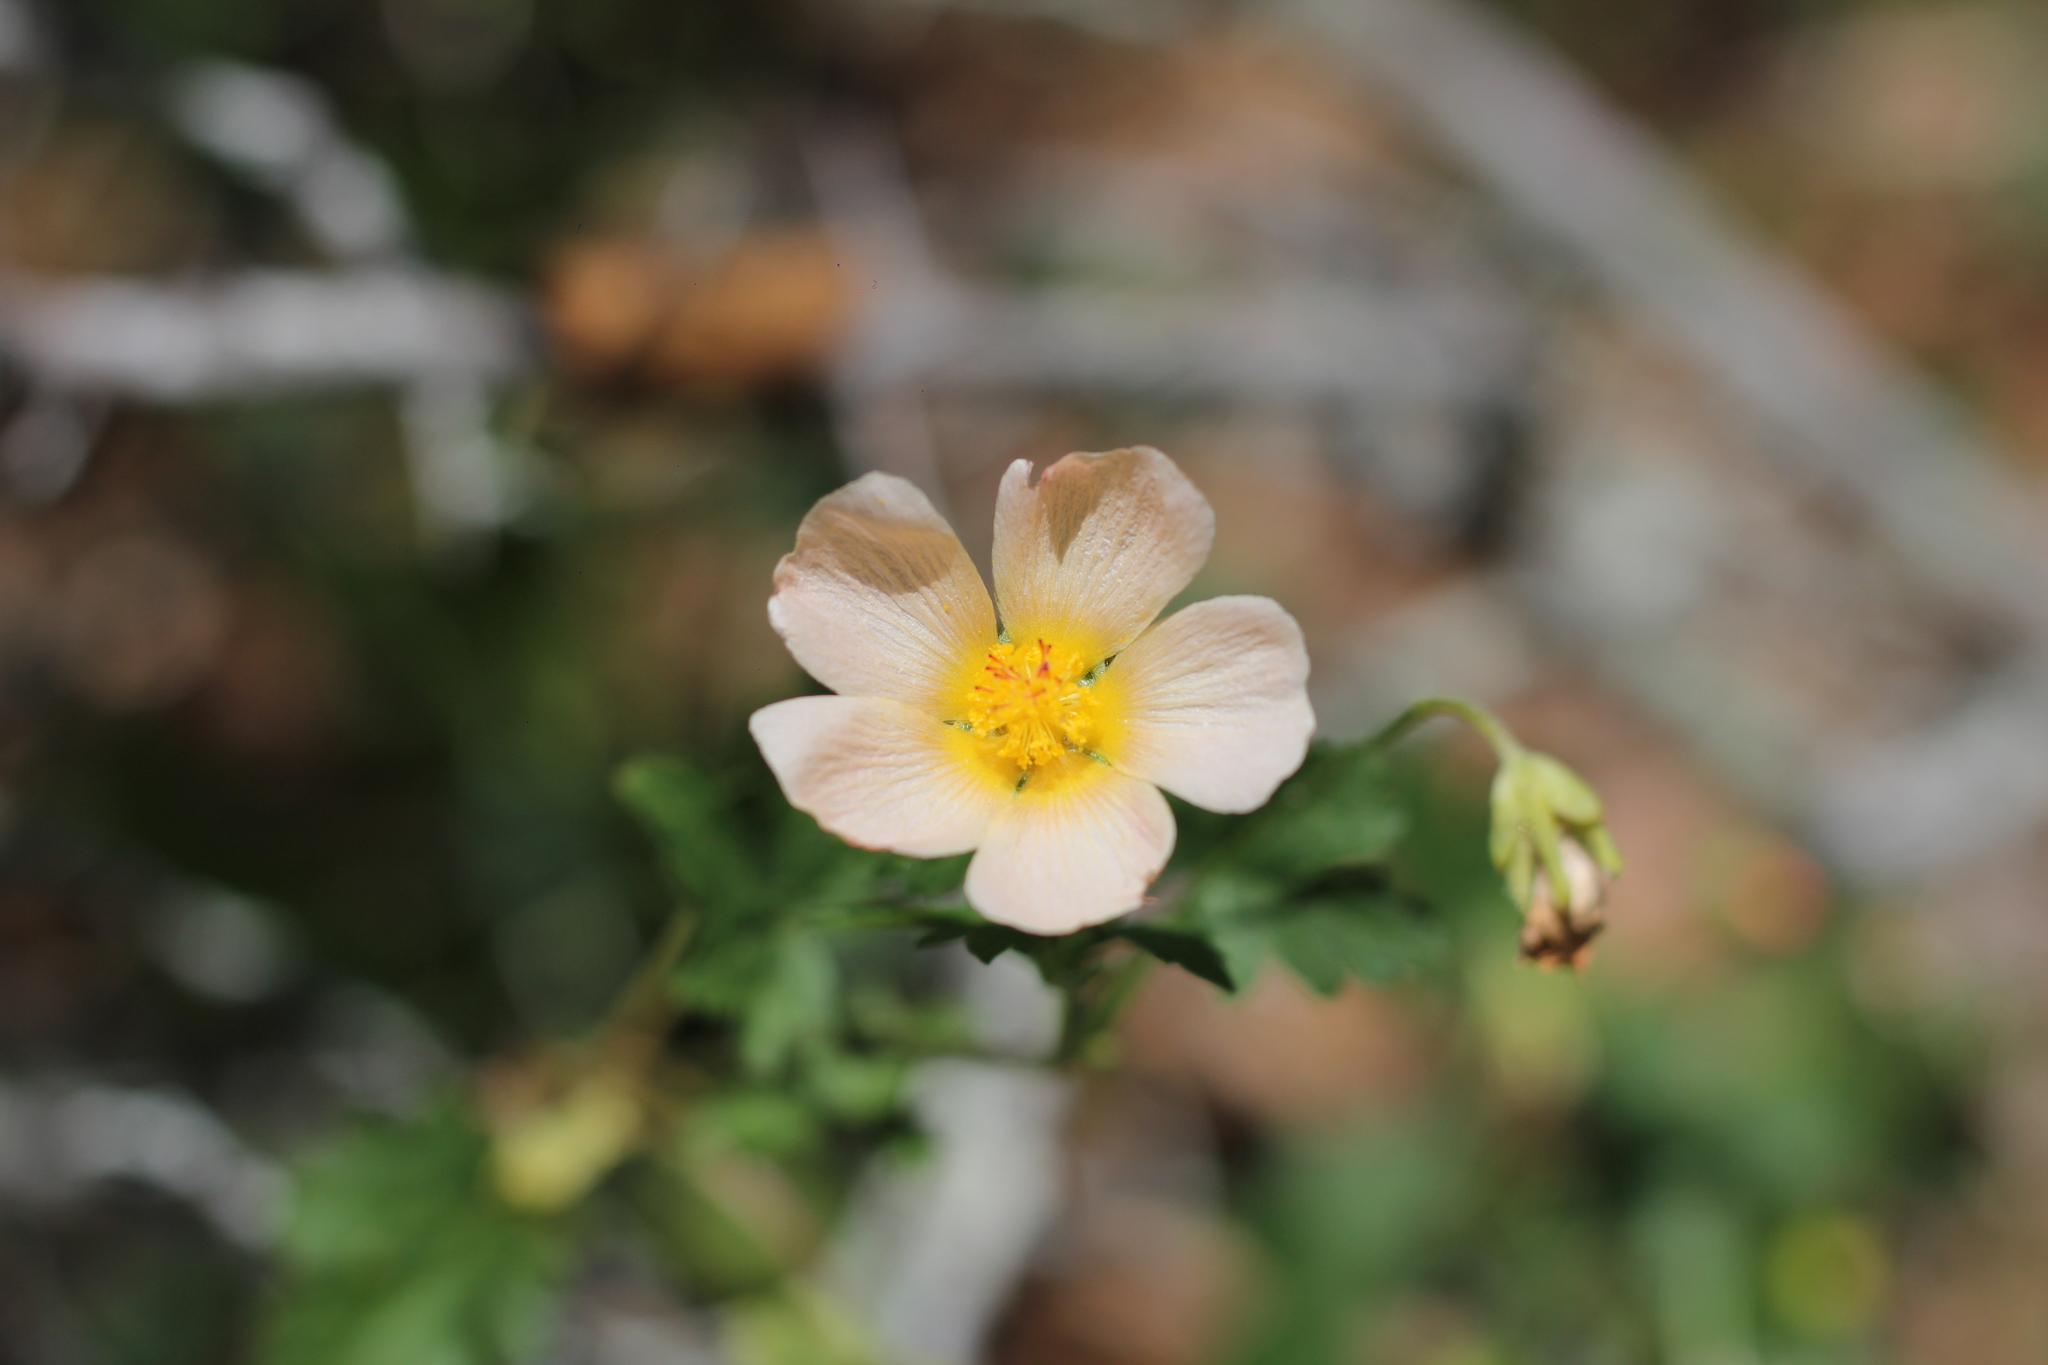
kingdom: Plantae
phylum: Tracheophyta
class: Magnoliopsida
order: Malvales
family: Malvaceae
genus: Modiolastrum
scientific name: Modiolastrum malvifolium
